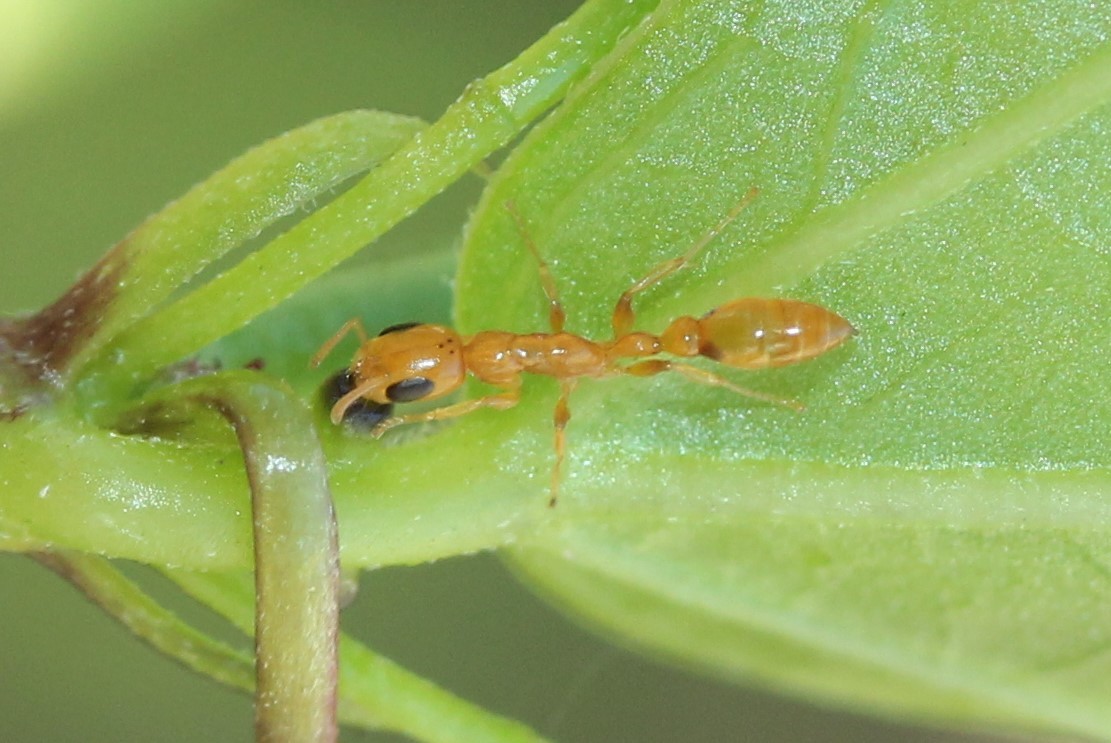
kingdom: Animalia
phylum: Arthropoda
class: Insecta
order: Hymenoptera
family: Formicidae
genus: Pseudomyrmex
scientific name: Pseudomyrmex simplex
